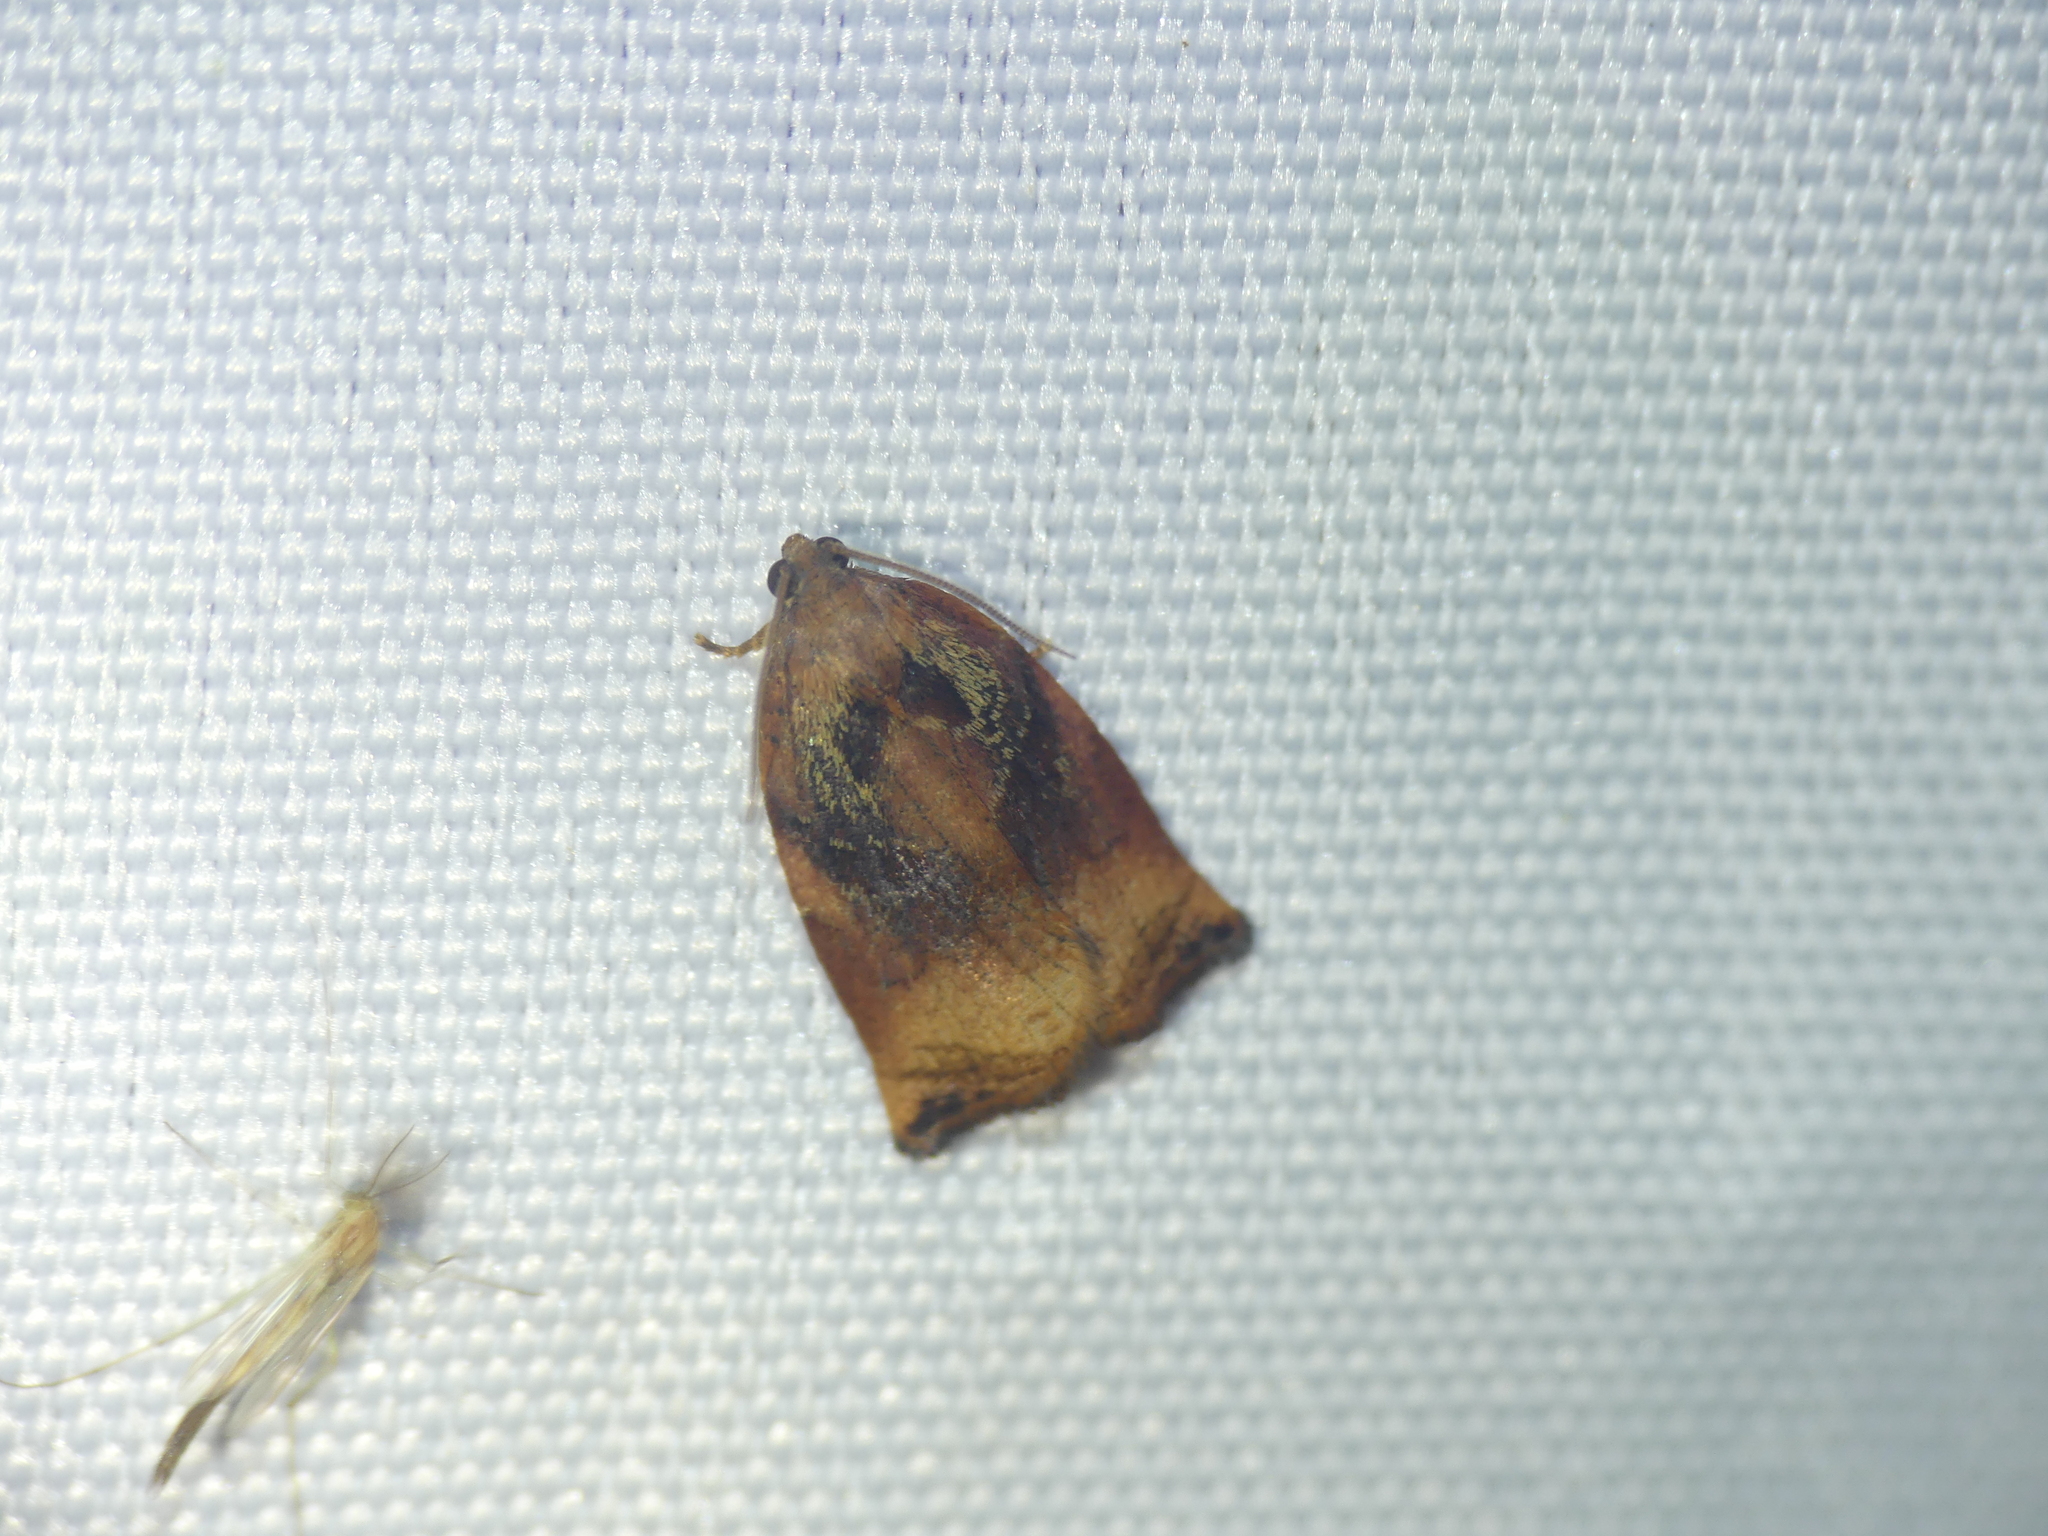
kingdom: Animalia
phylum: Arthropoda
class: Insecta
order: Lepidoptera
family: Tortricidae
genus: Archips
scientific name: Archips podana
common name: Large fruit-tree tortrix
